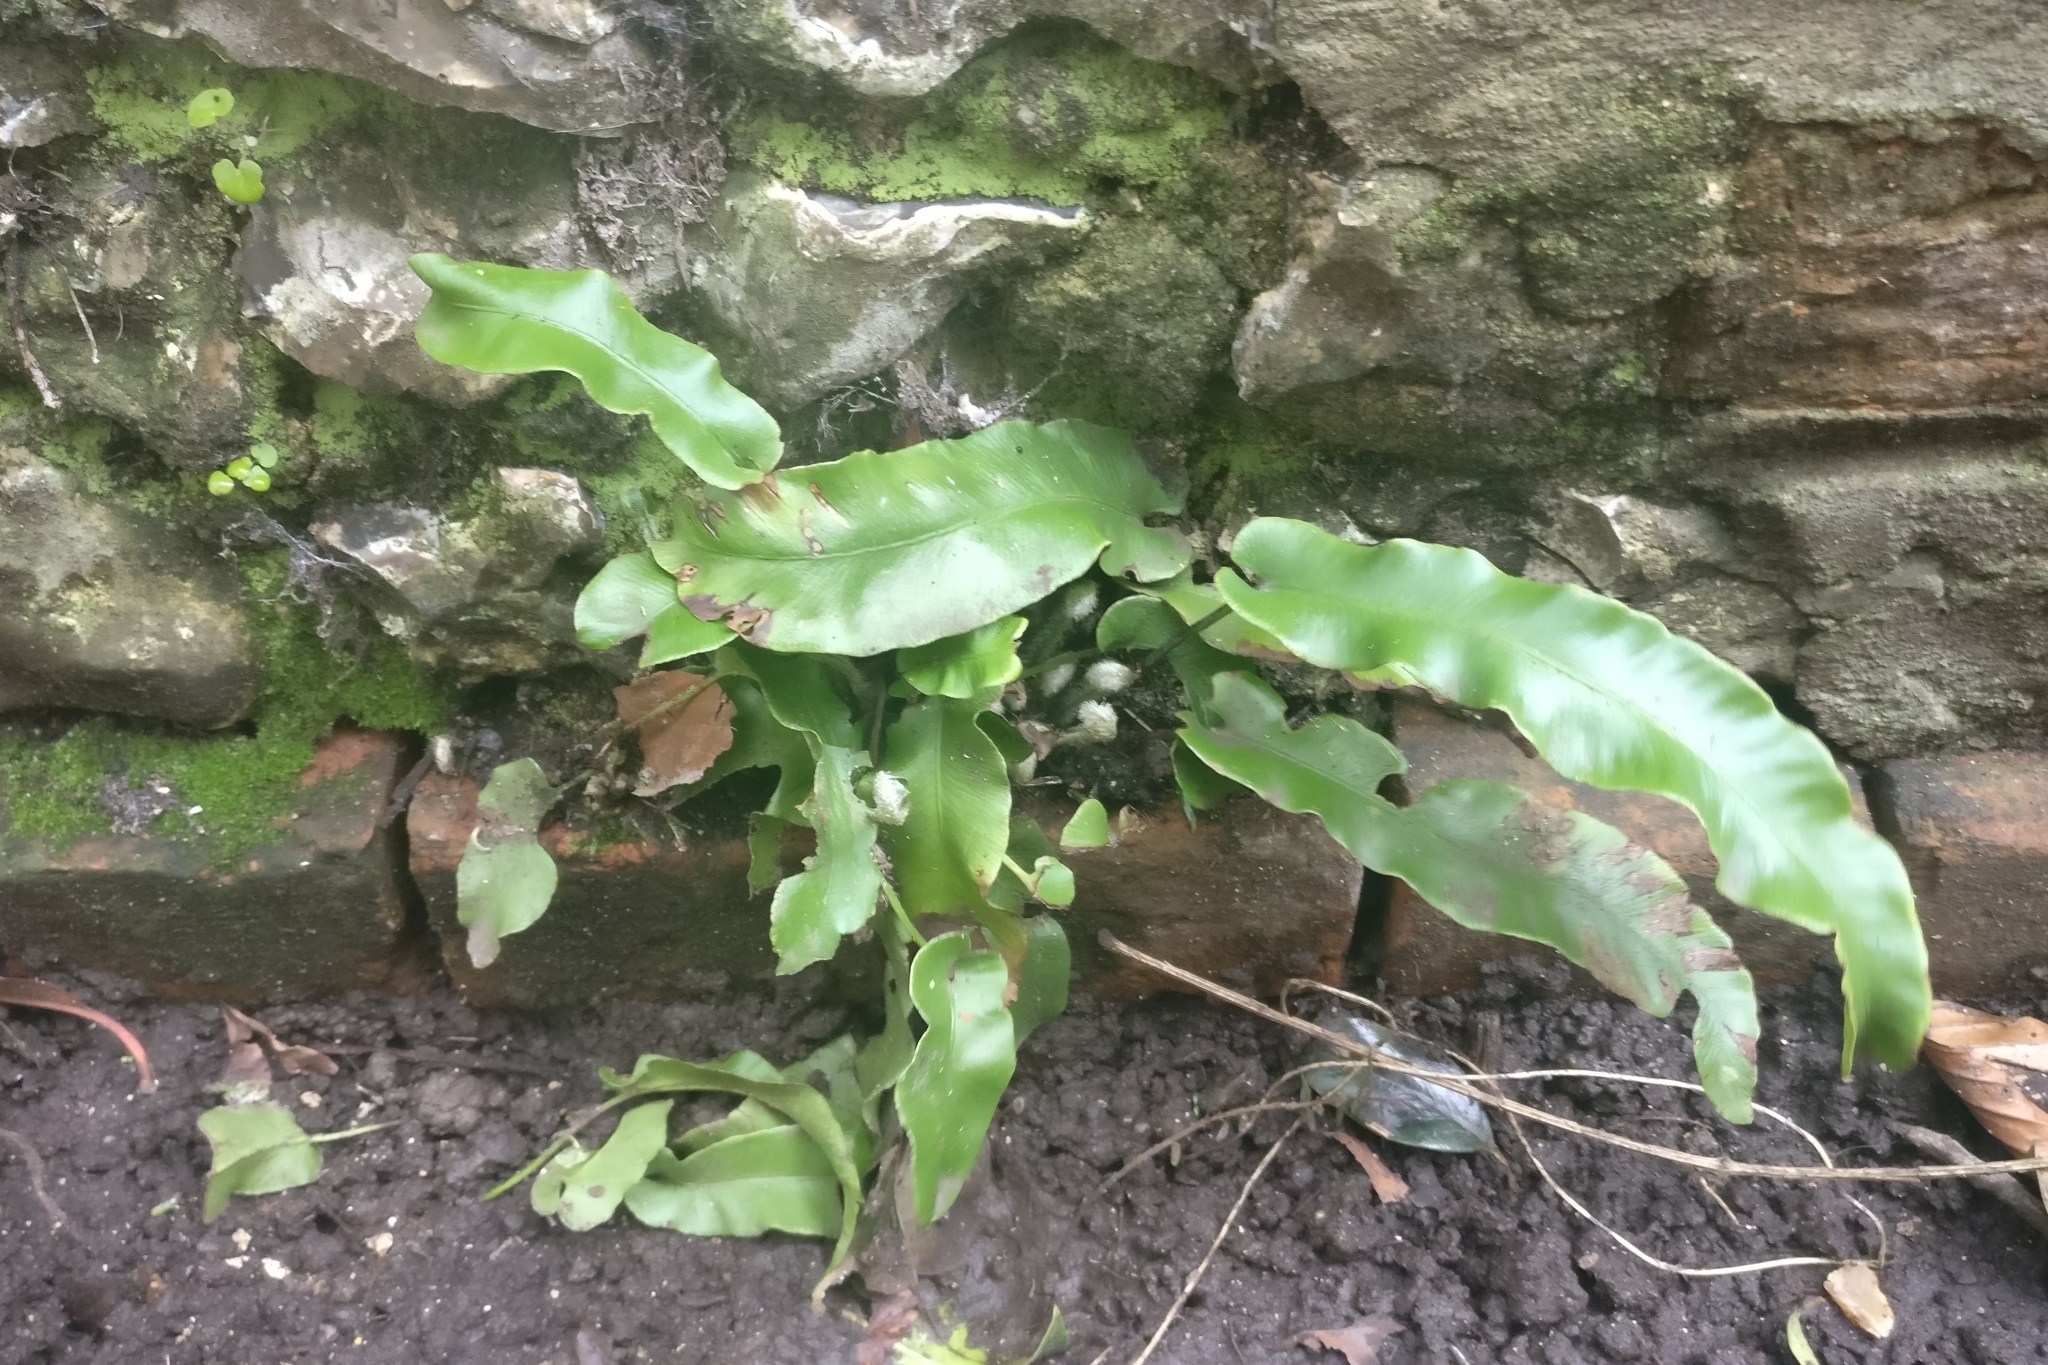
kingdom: Plantae
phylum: Tracheophyta
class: Polypodiopsida
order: Polypodiales
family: Aspleniaceae
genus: Asplenium
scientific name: Asplenium scolopendrium
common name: Hart's-tongue fern
